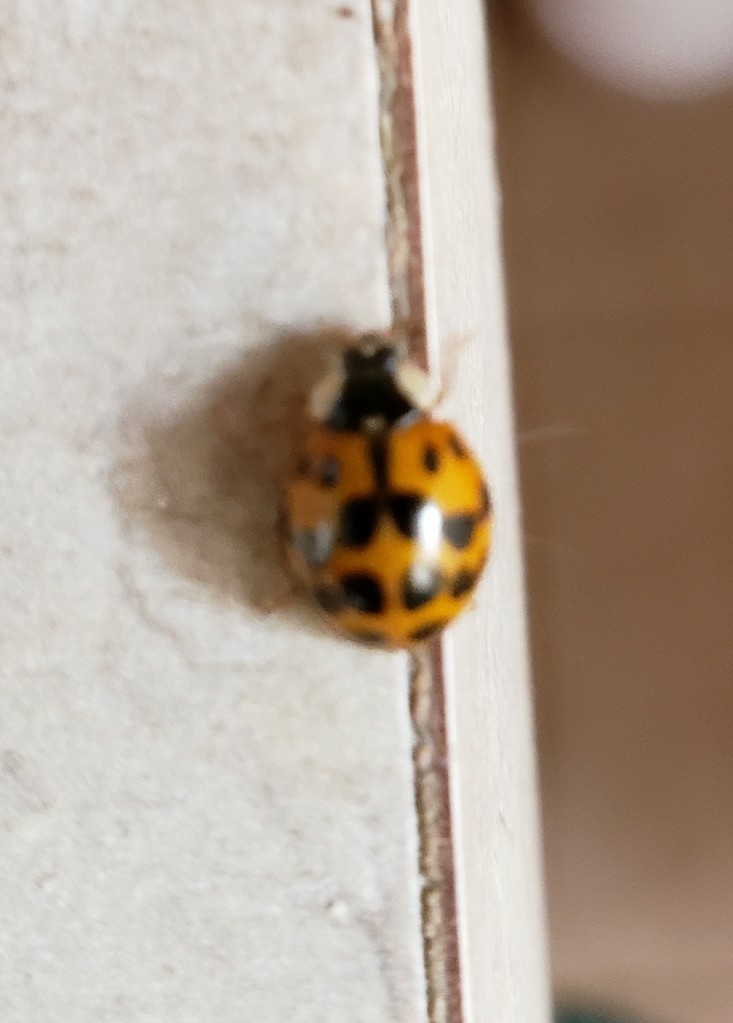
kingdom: Animalia
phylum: Arthropoda
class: Insecta
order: Coleoptera
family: Coccinellidae
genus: Harmonia
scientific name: Harmonia axyridis
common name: Harlequin ladybird
